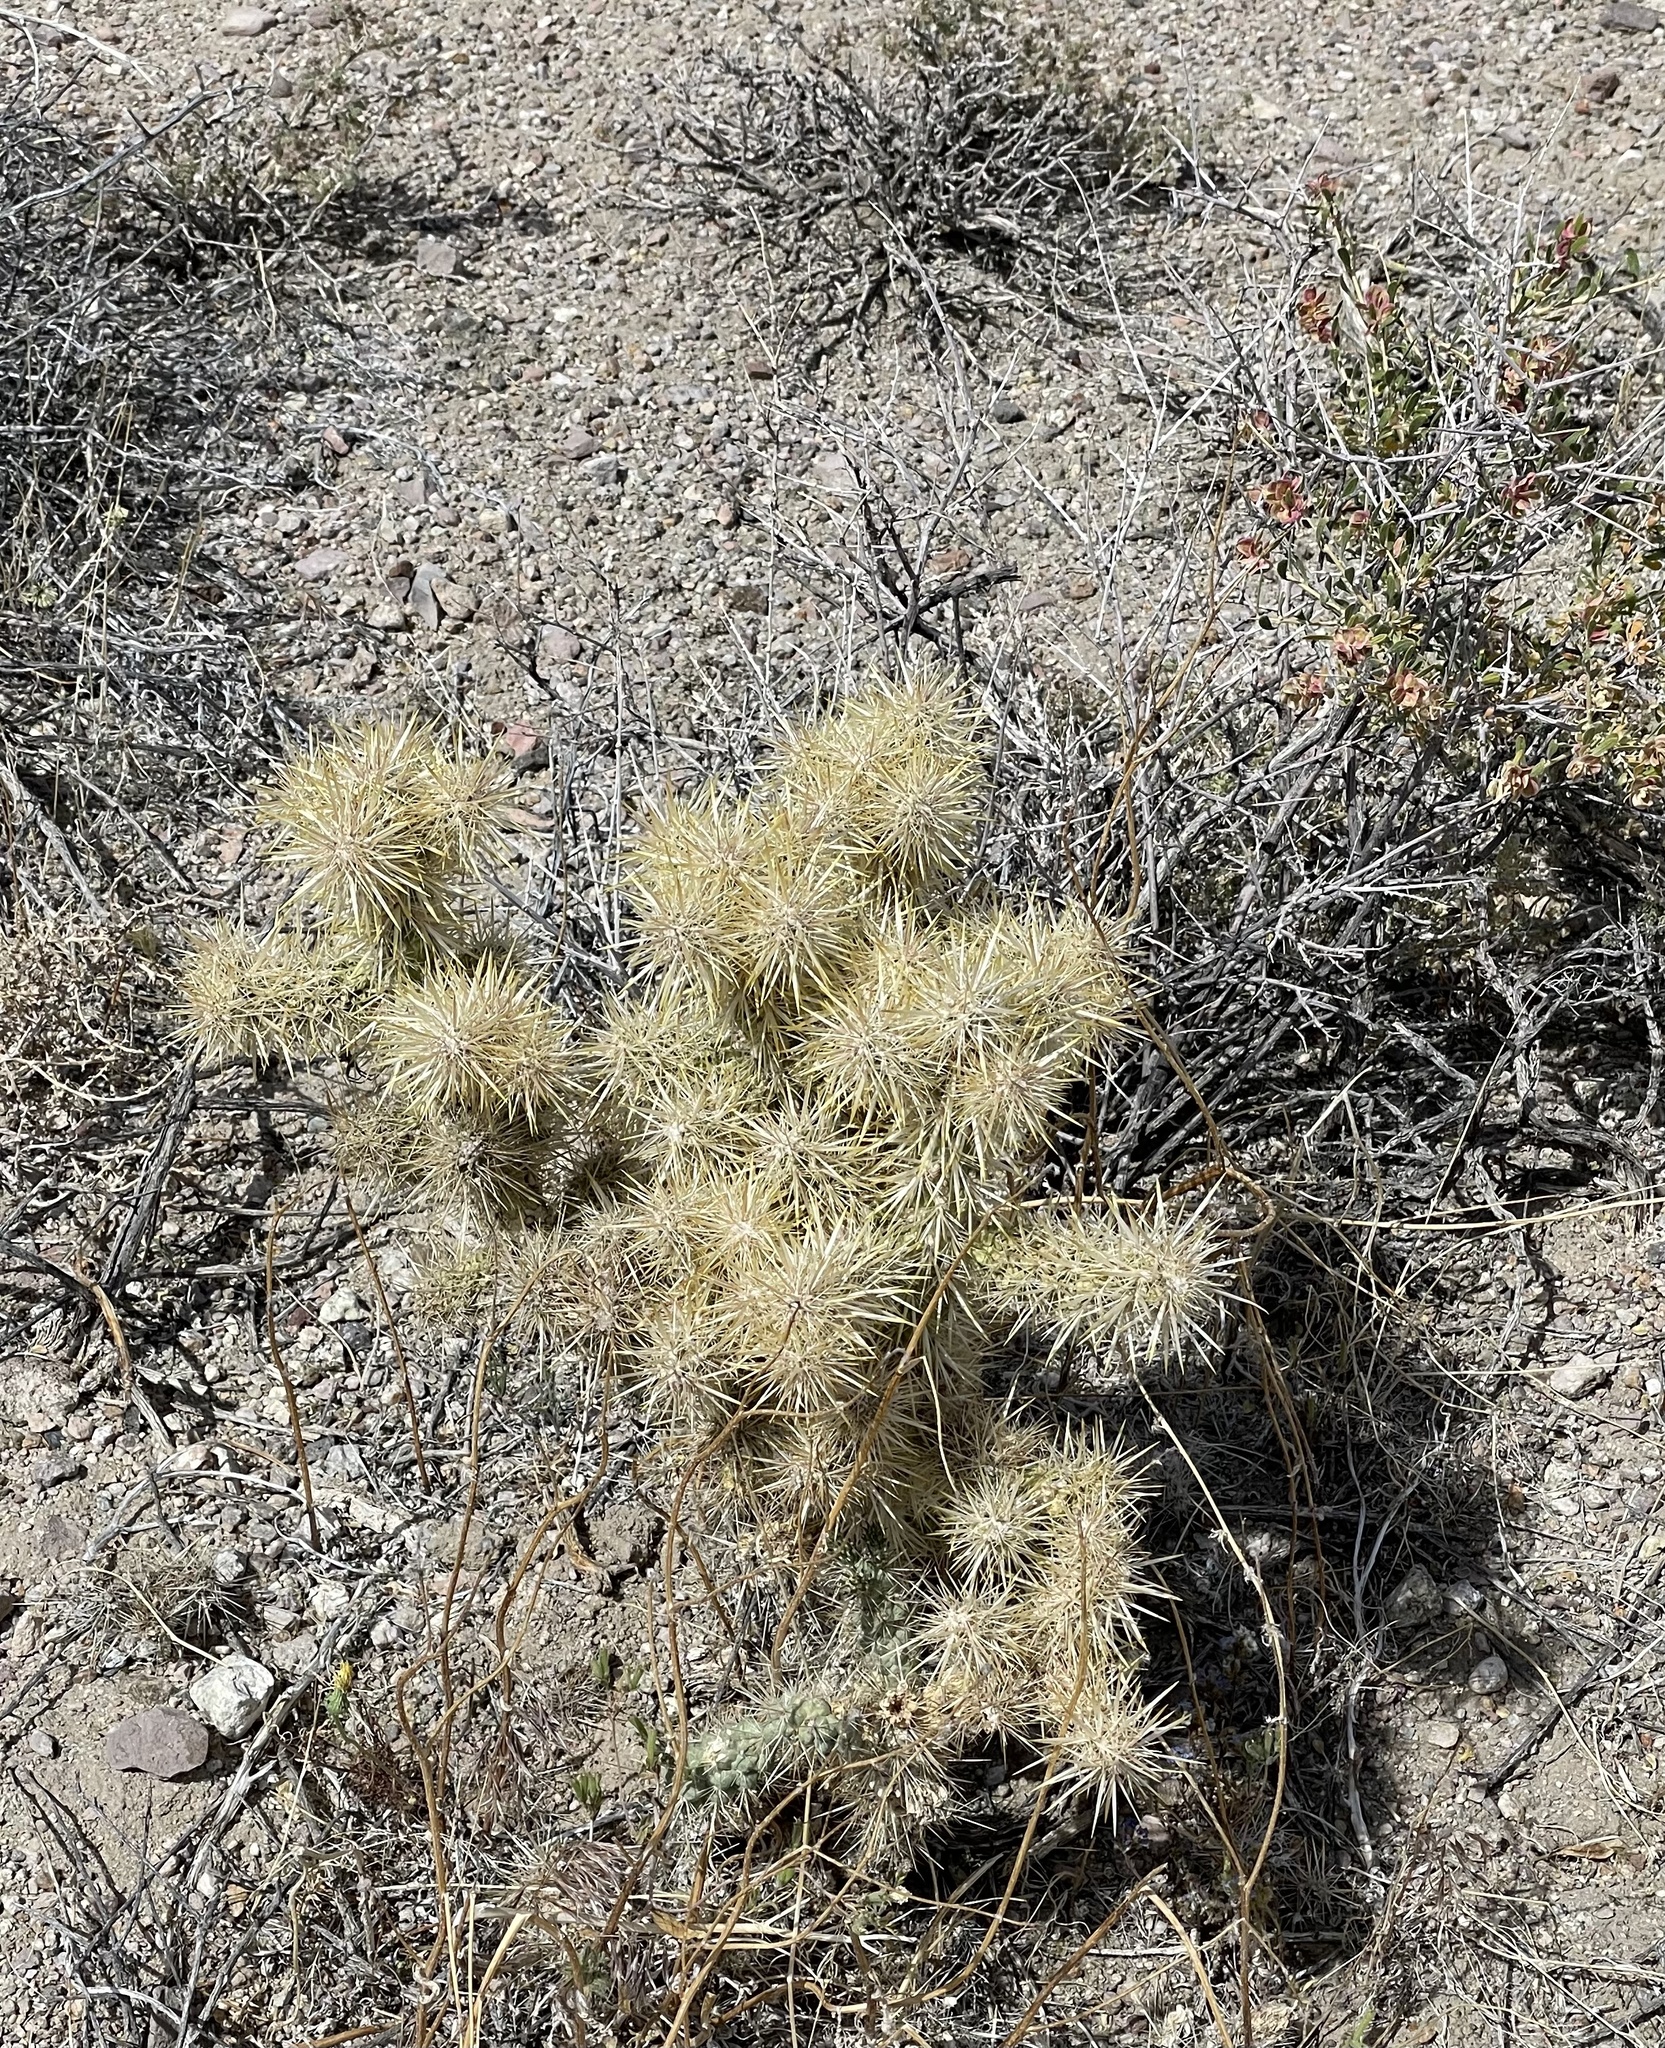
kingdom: Plantae
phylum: Tracheophyta
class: Magnoliopsida
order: Caryophyllales
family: Cactaceae
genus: Cylindropuntia
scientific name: Cylindropuntia echinocarpa
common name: Ground cholla
